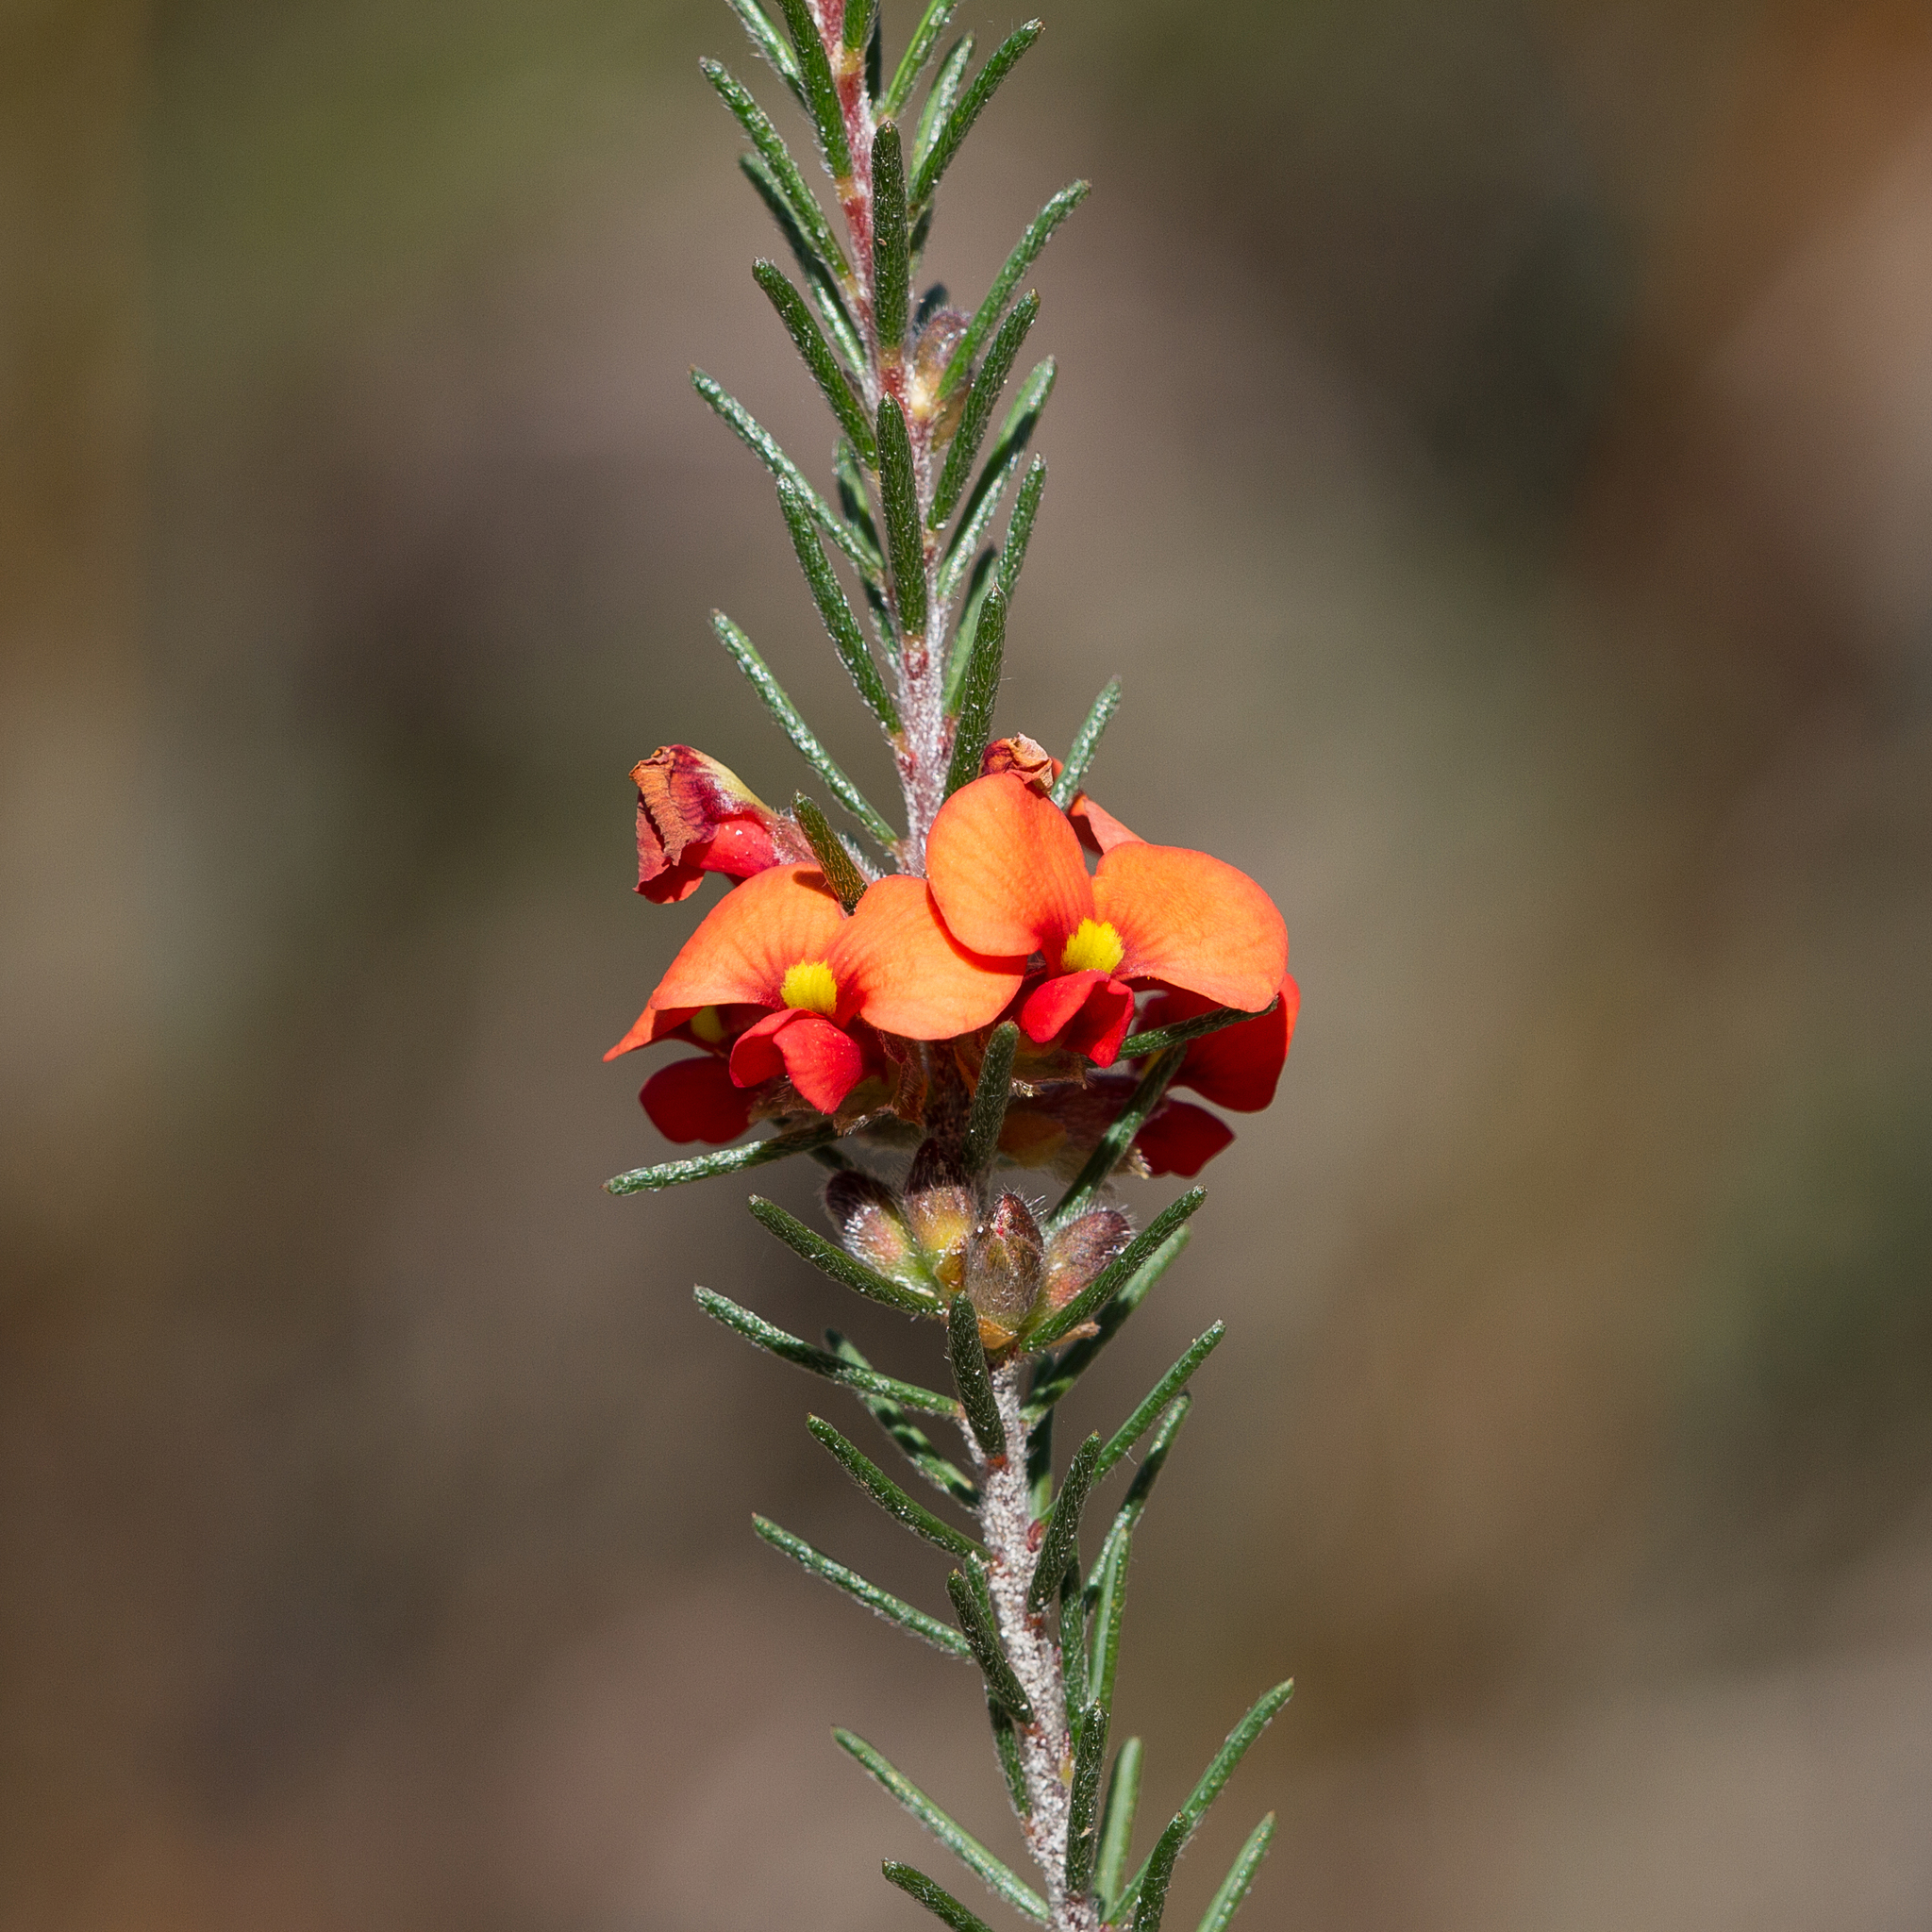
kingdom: Plantae
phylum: Tracheophyta
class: Magnoliopsida
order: Fabales
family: Fabaceae
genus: Dillwynia
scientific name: Dillwynia sericea
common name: Showy parrot-pea
